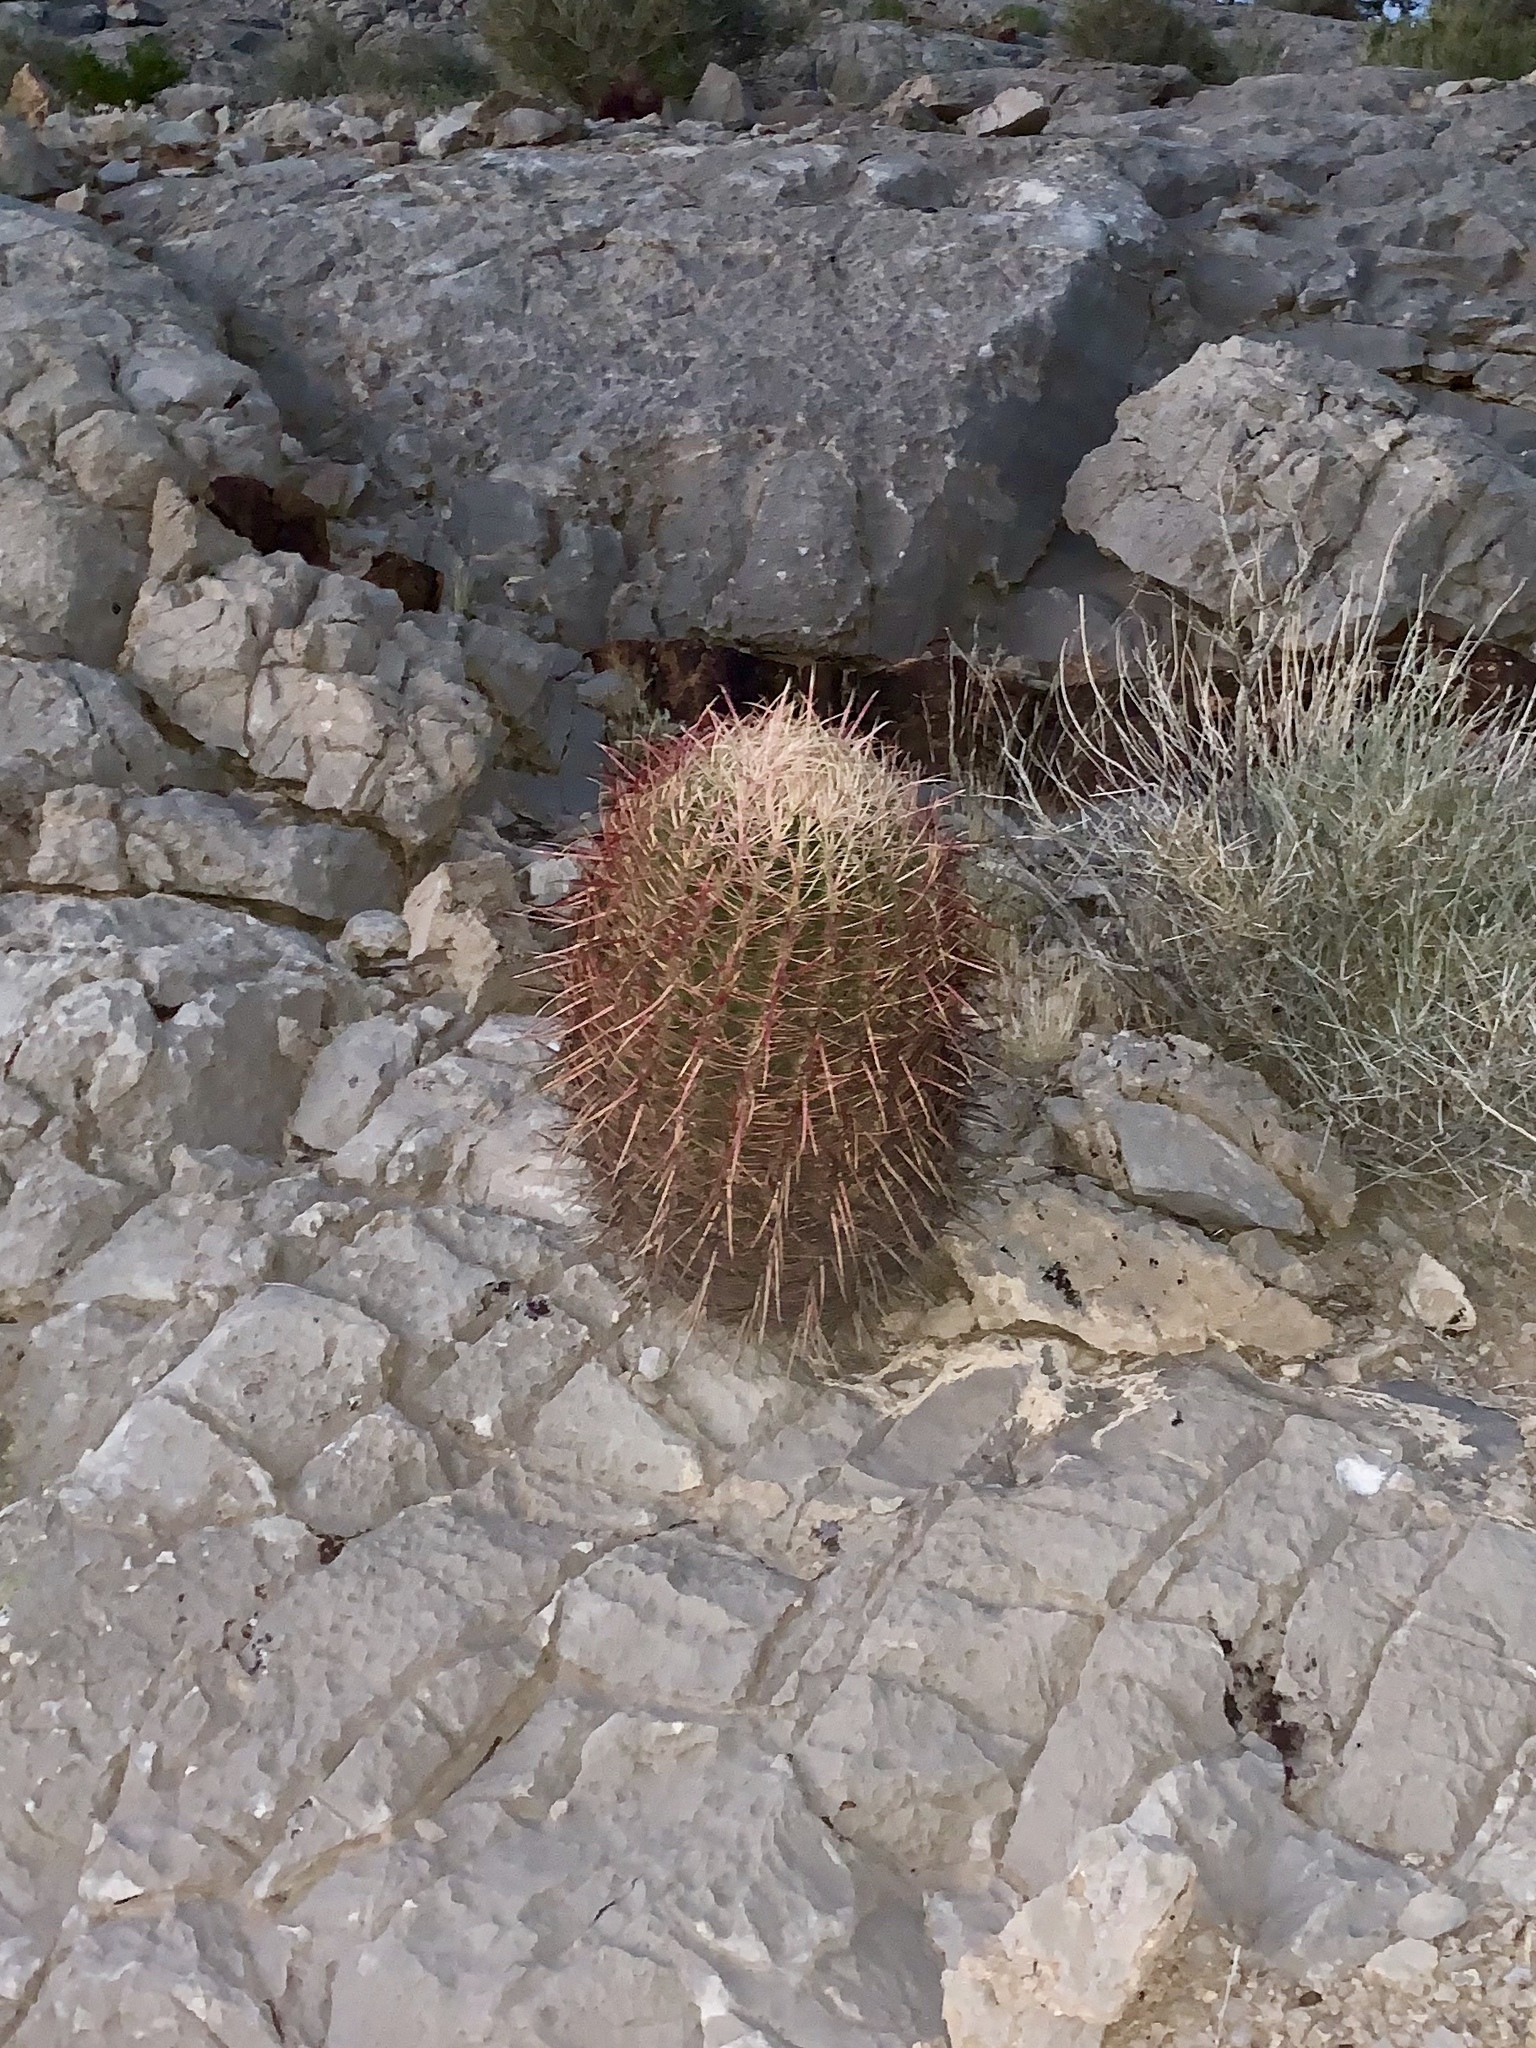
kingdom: Plantae
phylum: Tracheophyta
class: Magnoliopsida
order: Caryophyllales
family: Cactaceae
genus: Ferocactus
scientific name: Ferocactus cylindraceus
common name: California barrel cactus
